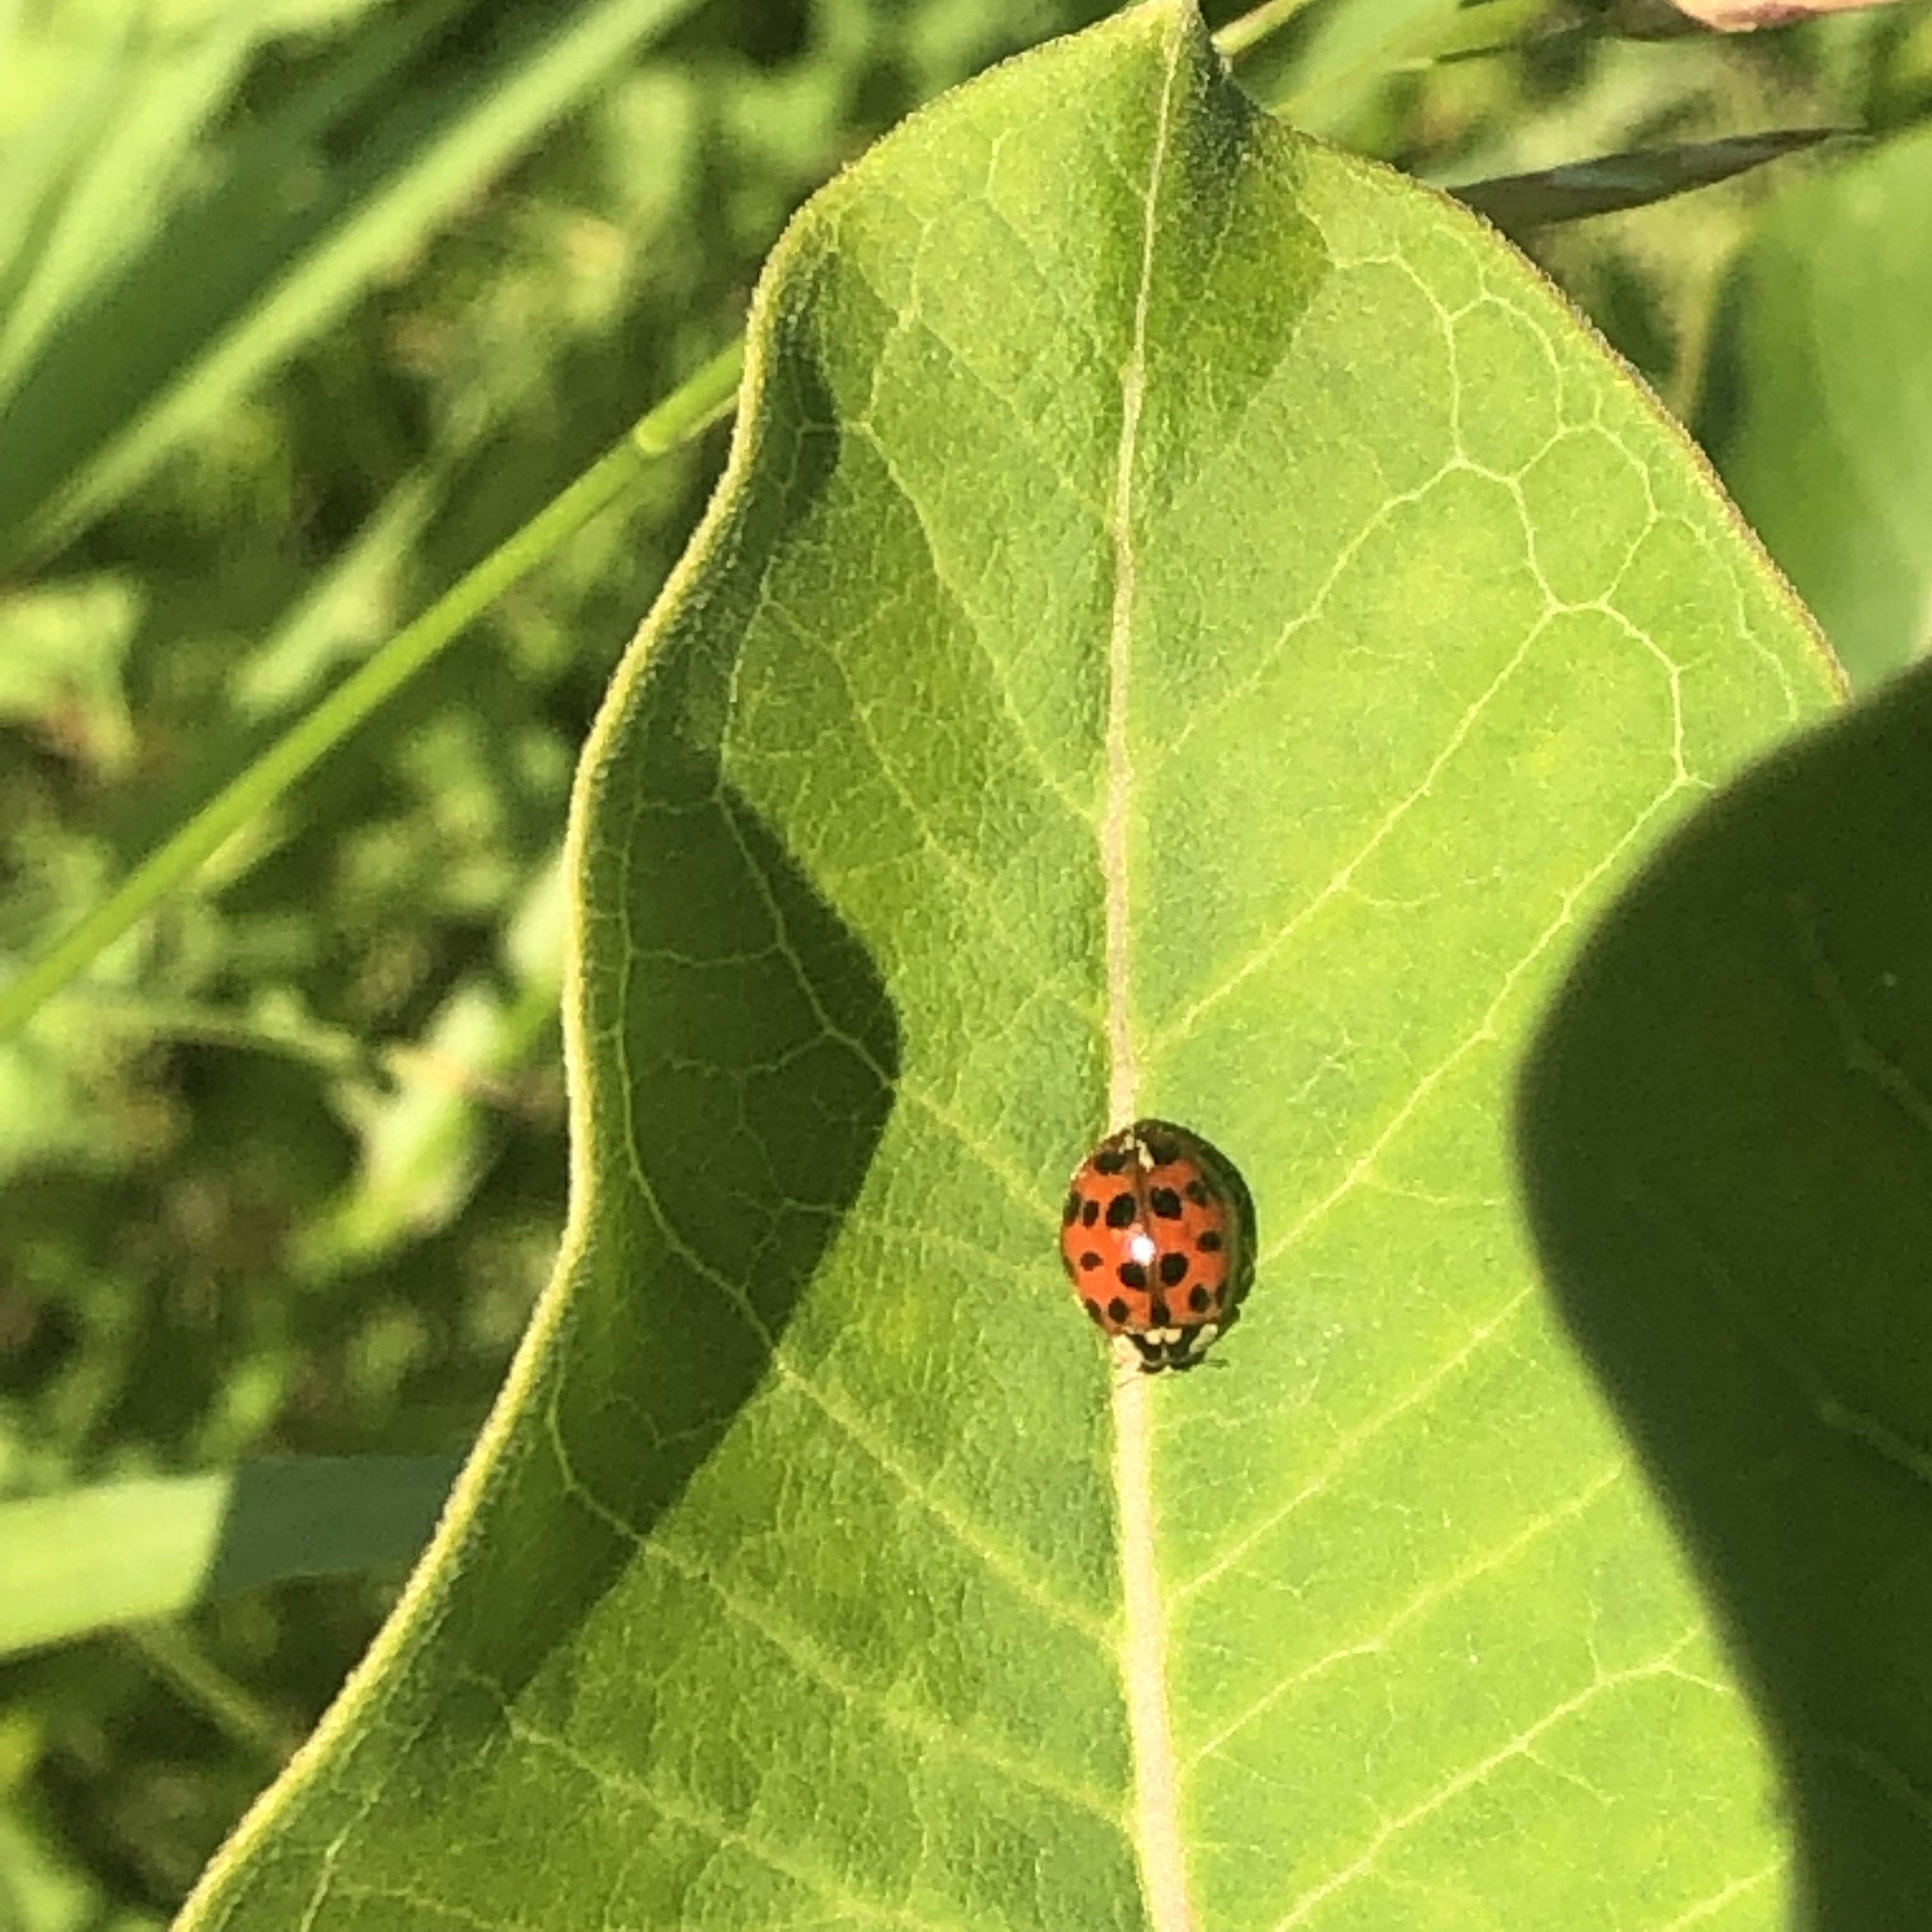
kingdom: Animalia
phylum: Arthropoda
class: Insecta
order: Coleoptera
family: Coccinellidae
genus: Harmonia
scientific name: Harmonia axyridis
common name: Harlequin ladybird
